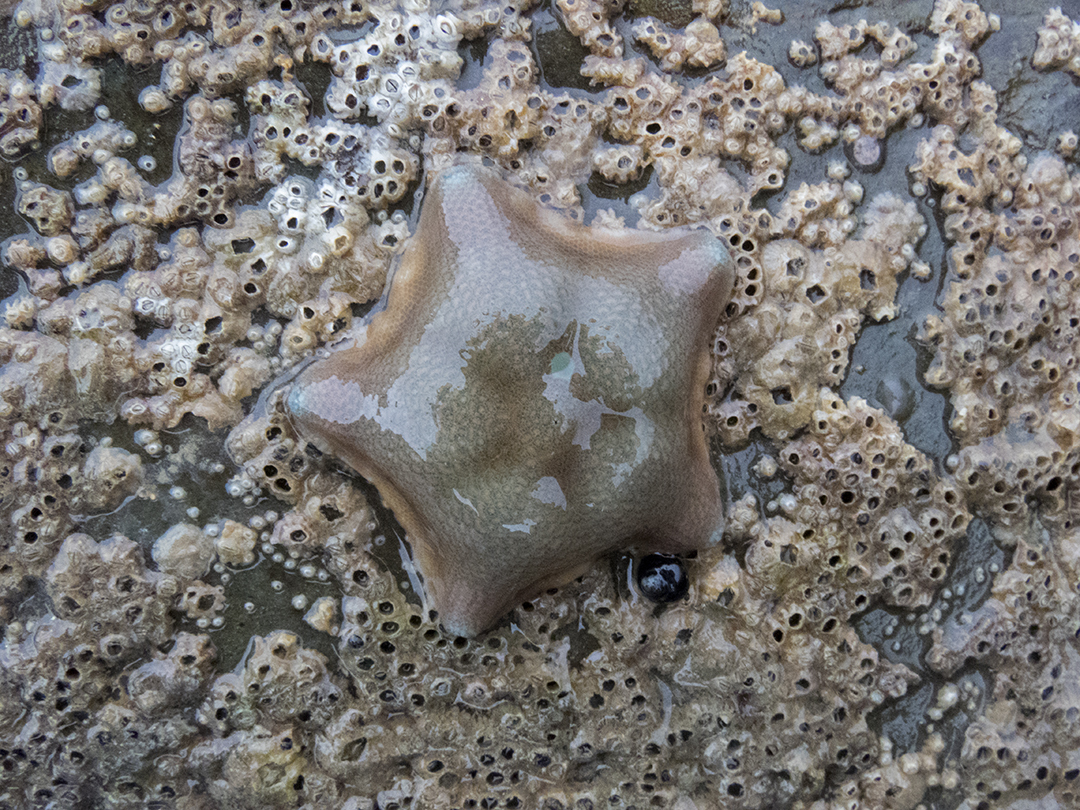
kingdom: Animalia
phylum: Echinodermata
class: Asteroidea
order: Valvatida
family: Asterinidae
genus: Patiriella
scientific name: Patiriella regularis
